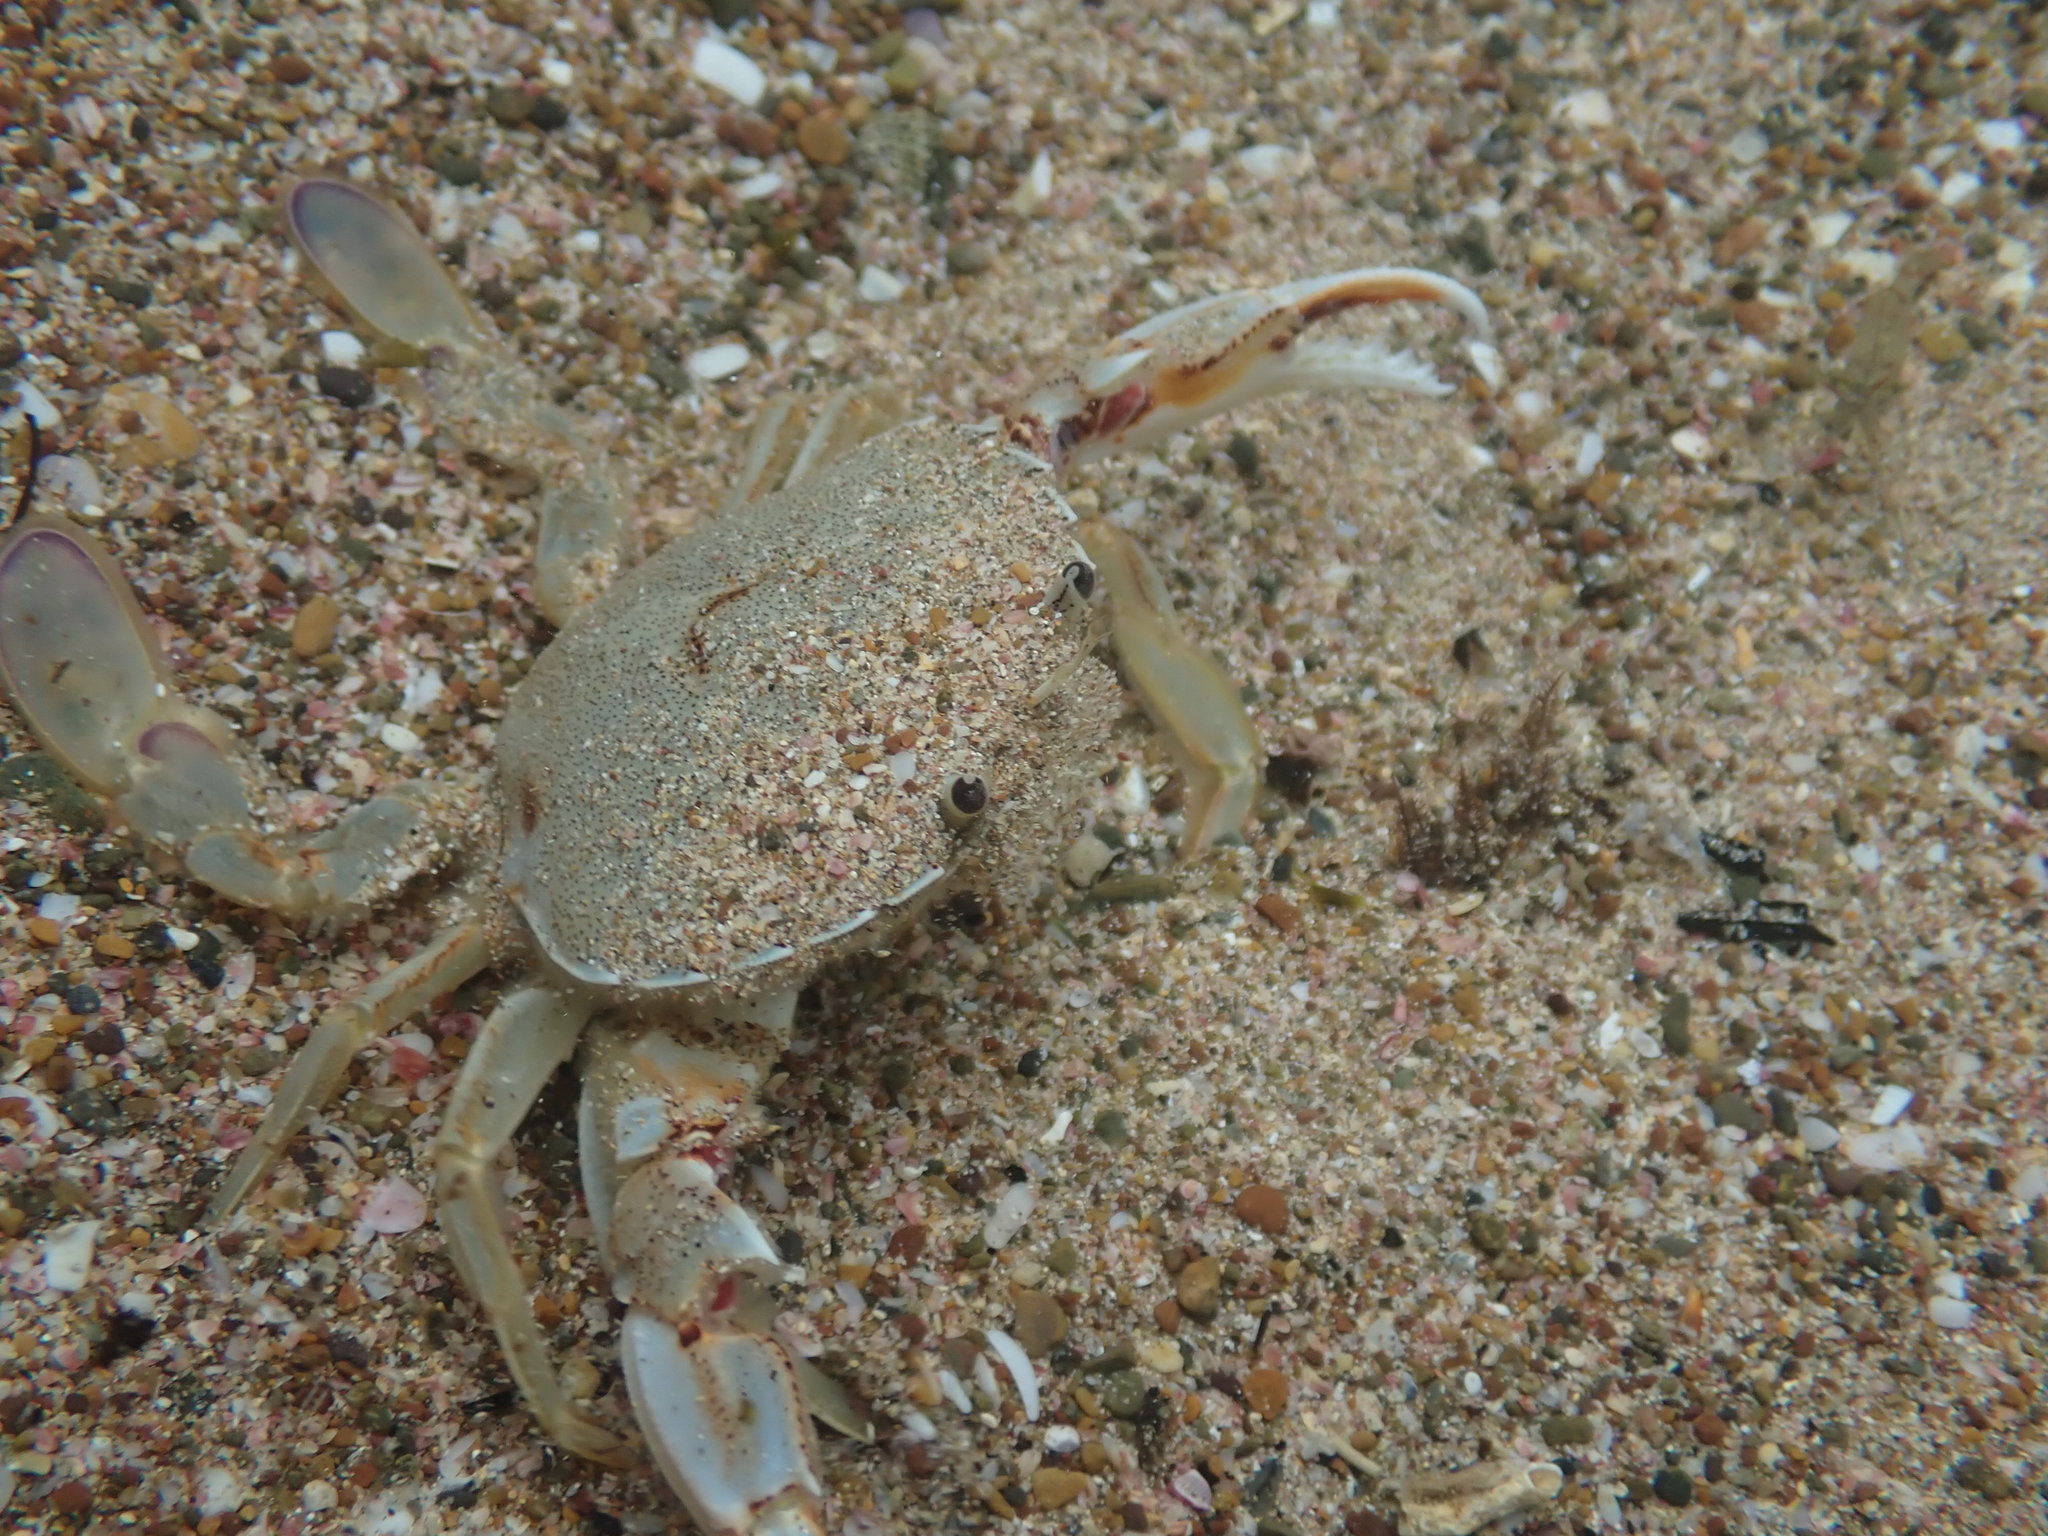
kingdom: Animalia
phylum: Arthropoda
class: Malacostraca
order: Decapoda
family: Ovalipidae
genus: Ovalipes
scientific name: Ovalipes catharus
